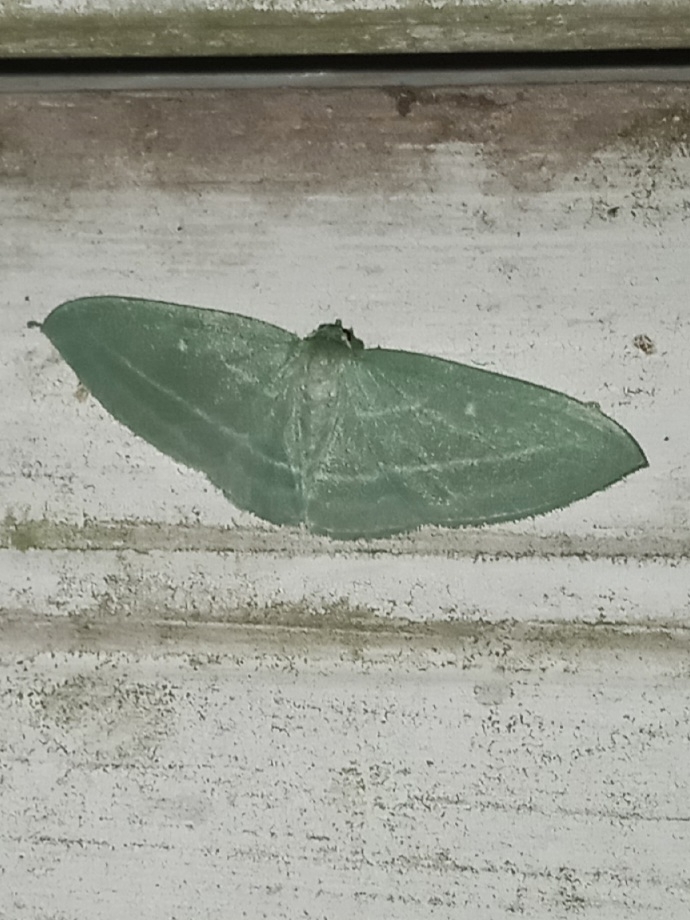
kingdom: Animalia
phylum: Arthropoda
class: Insecta
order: Lepidoptera
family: Geometridae
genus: Dyspteris
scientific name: Dyspteris abortivaria
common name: Bad-wing
